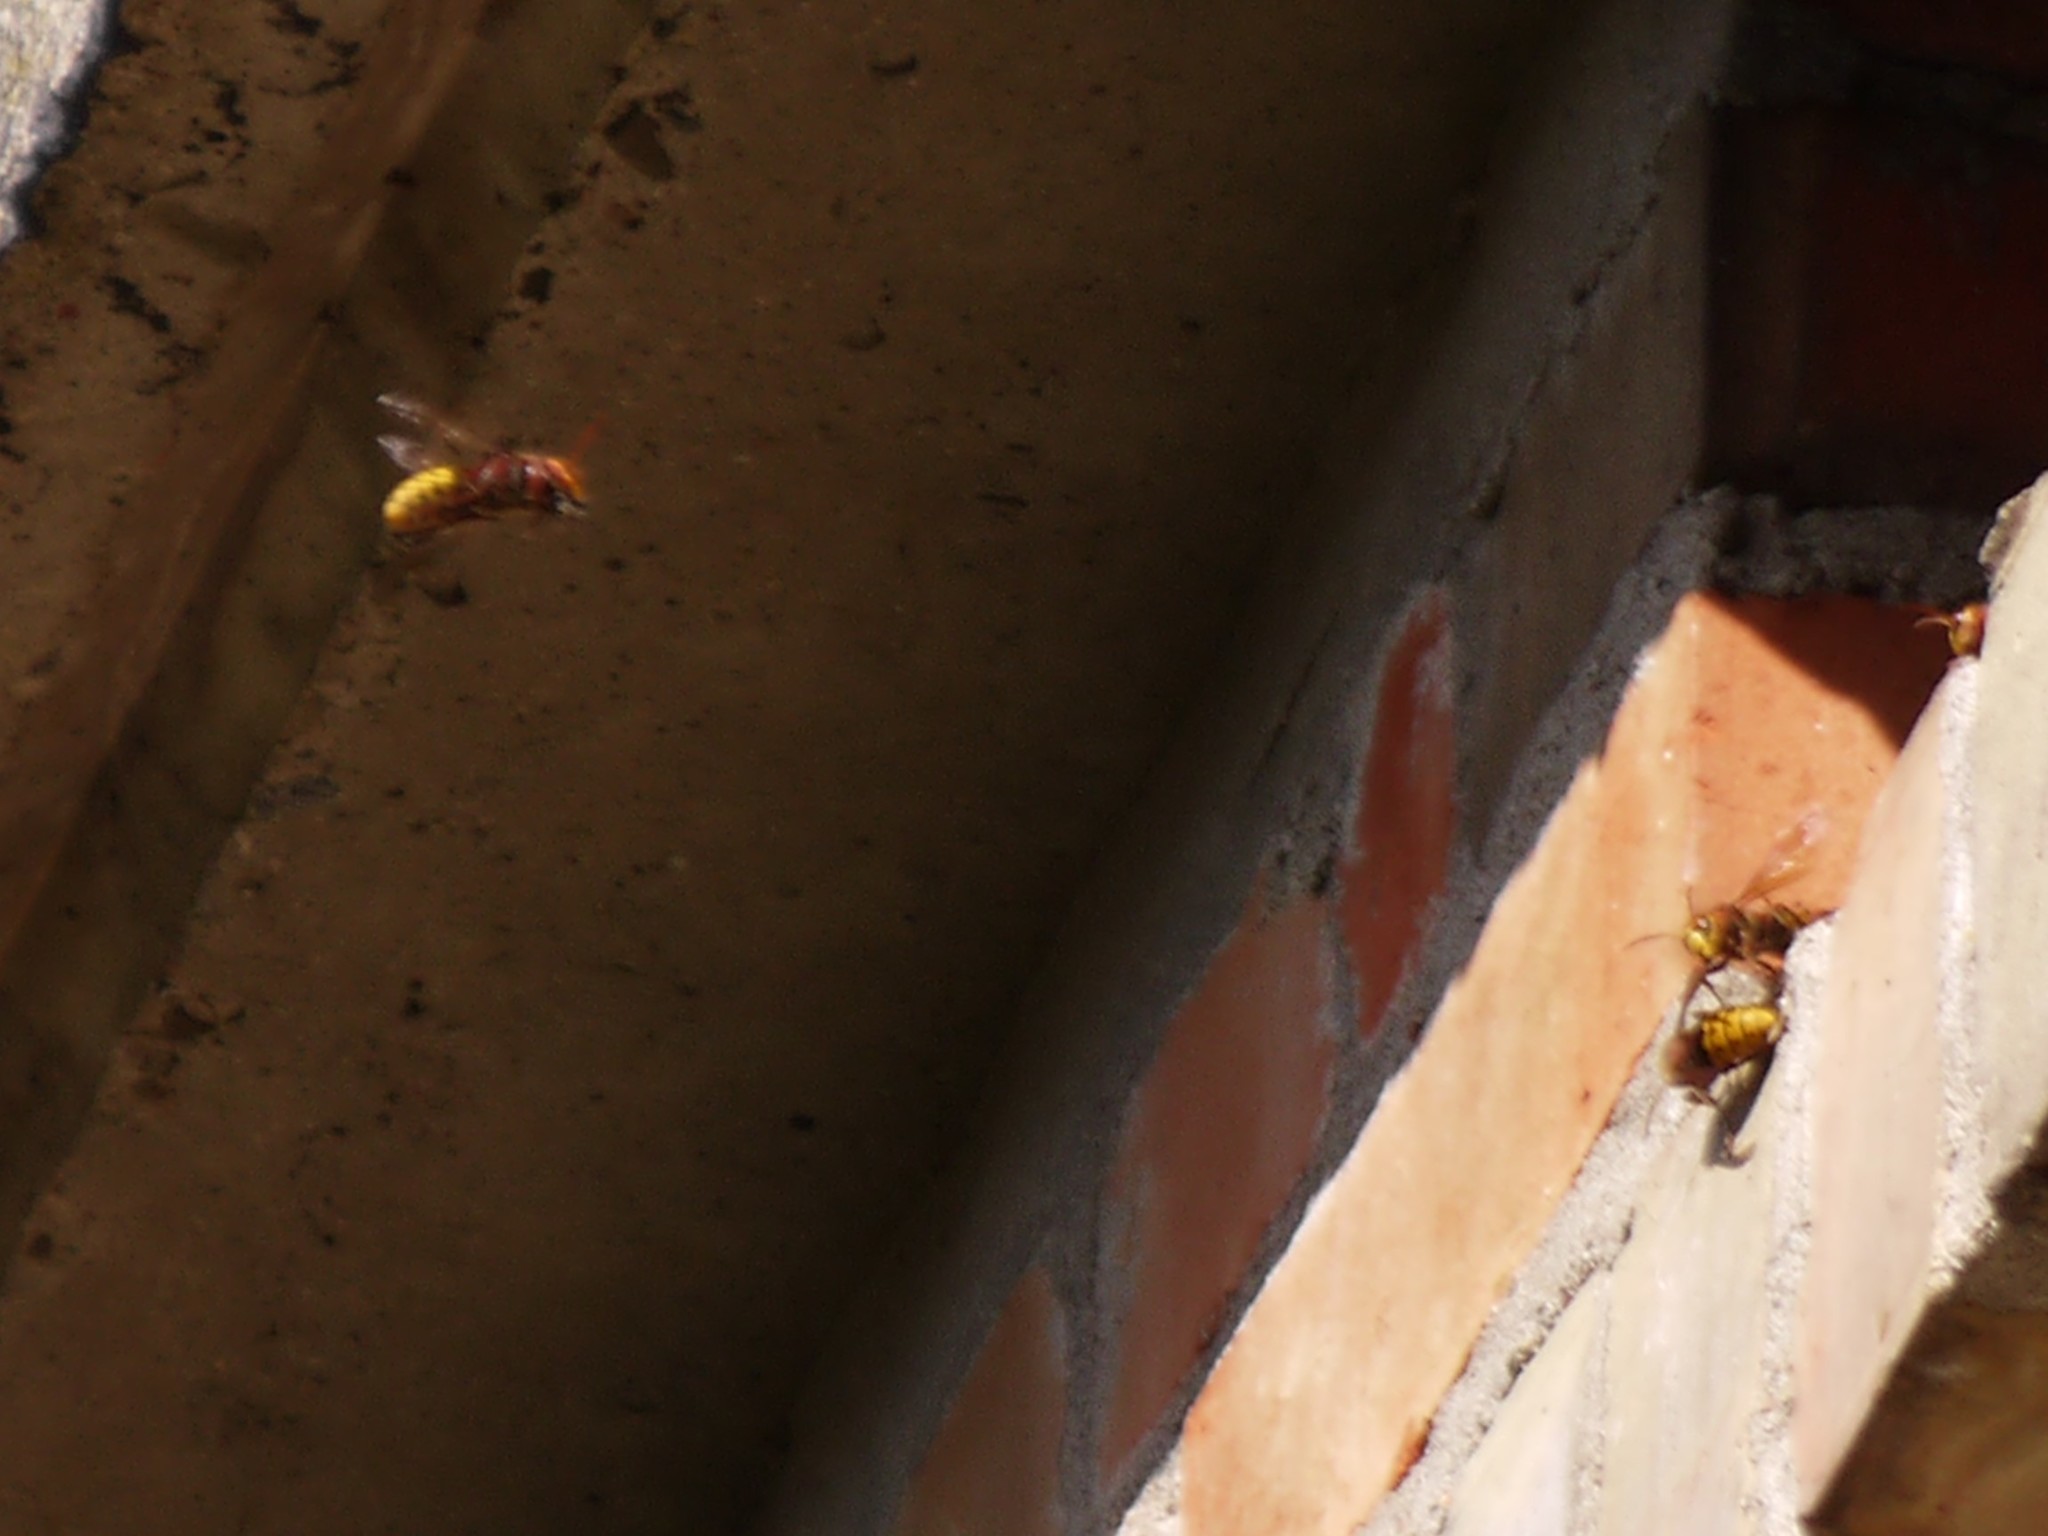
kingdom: Animalia
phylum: Arthropoda
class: Insecta
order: Hymenoptera
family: Vespidae
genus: Vespa
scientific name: Vespa crabro
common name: Hornet
